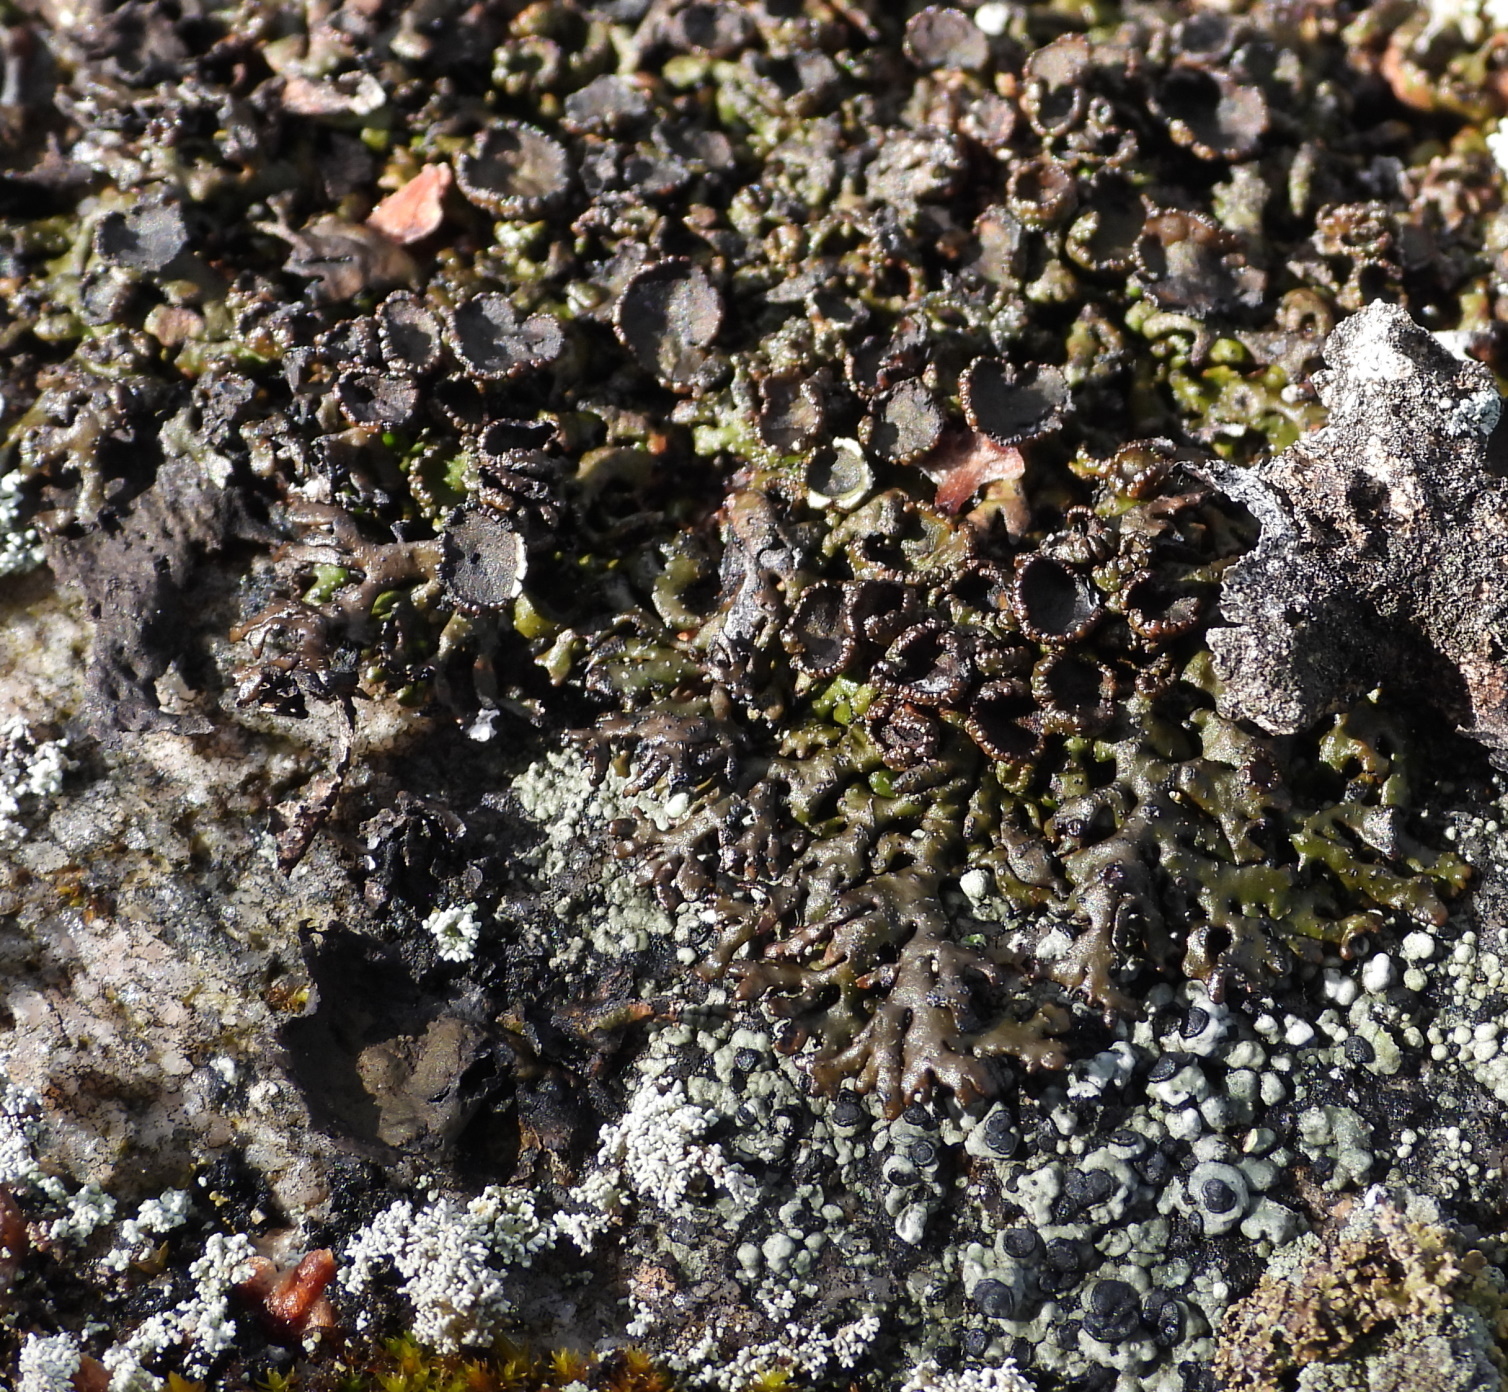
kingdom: Fungi
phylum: Ascomycota
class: Lecanoromycetes
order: Lecanorales
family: Parmeliaceae
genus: Melanelia
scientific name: Melanelia stygia
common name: Alpine camouflage lichen
